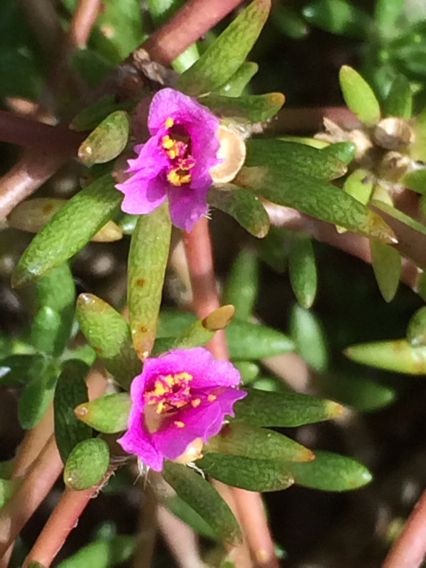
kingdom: Plantae
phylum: Tracheophyta
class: Magnoliopsida
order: Caryophyllales
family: Portulacaceae
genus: Portulaca
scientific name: Portulaca pilosa
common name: Kiss me quick
